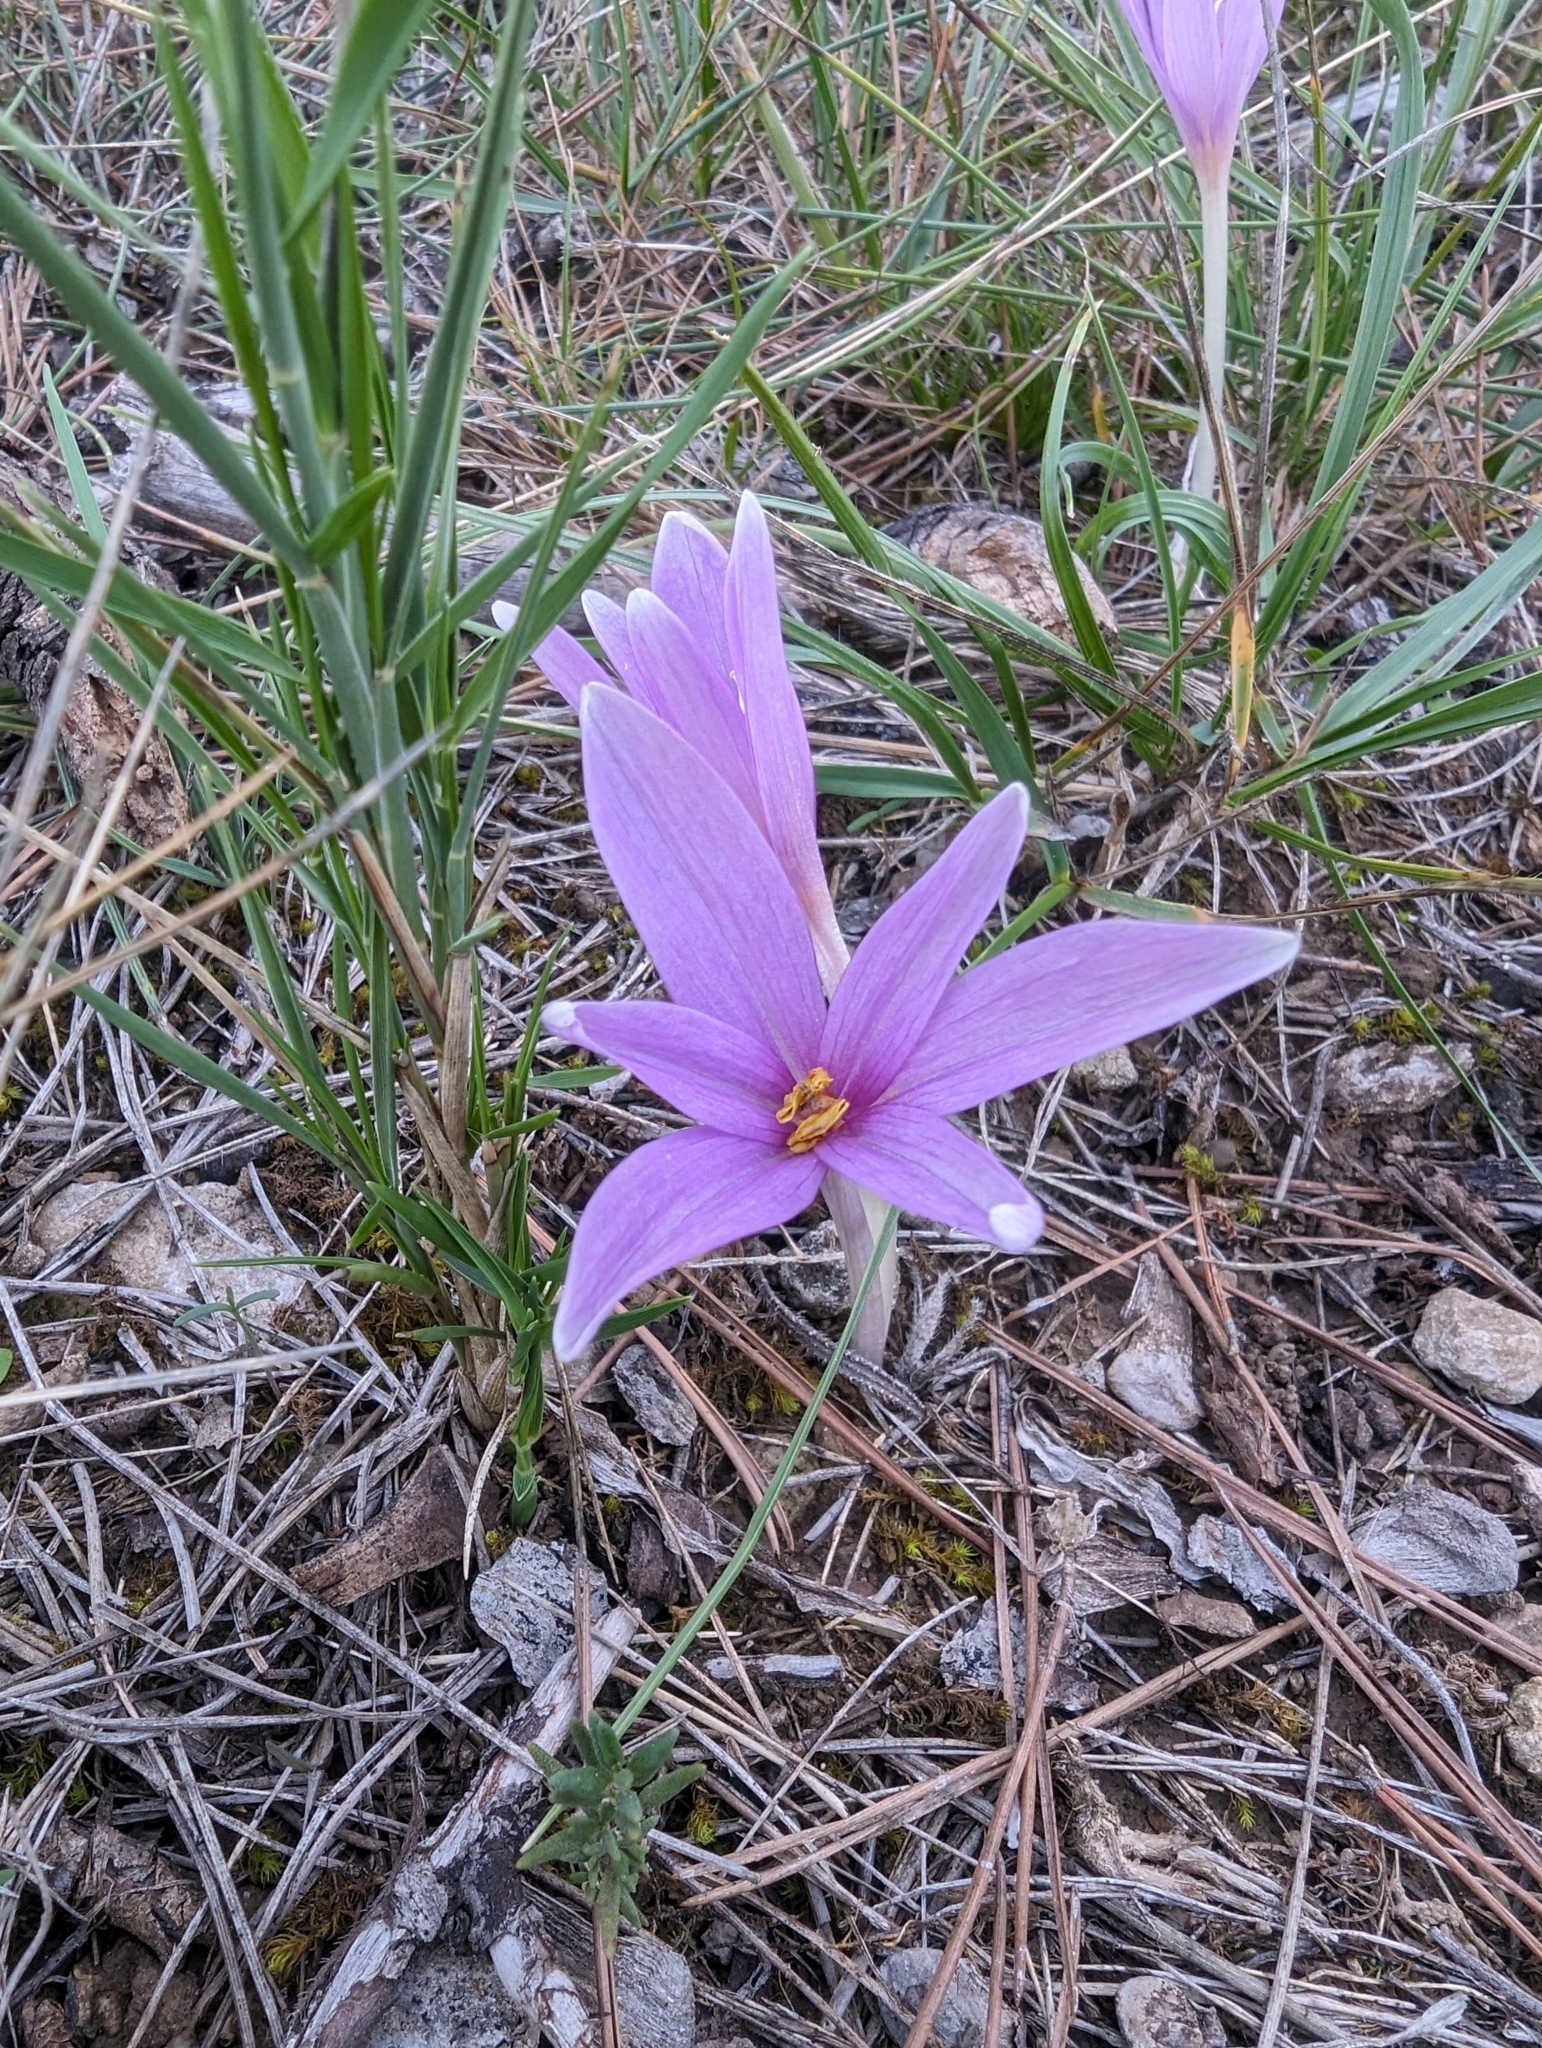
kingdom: Plantae
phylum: Tracheophyta
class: Liliopsida
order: Liliales
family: Colchicaceae
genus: Colchicum
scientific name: Colchicum longifolium
